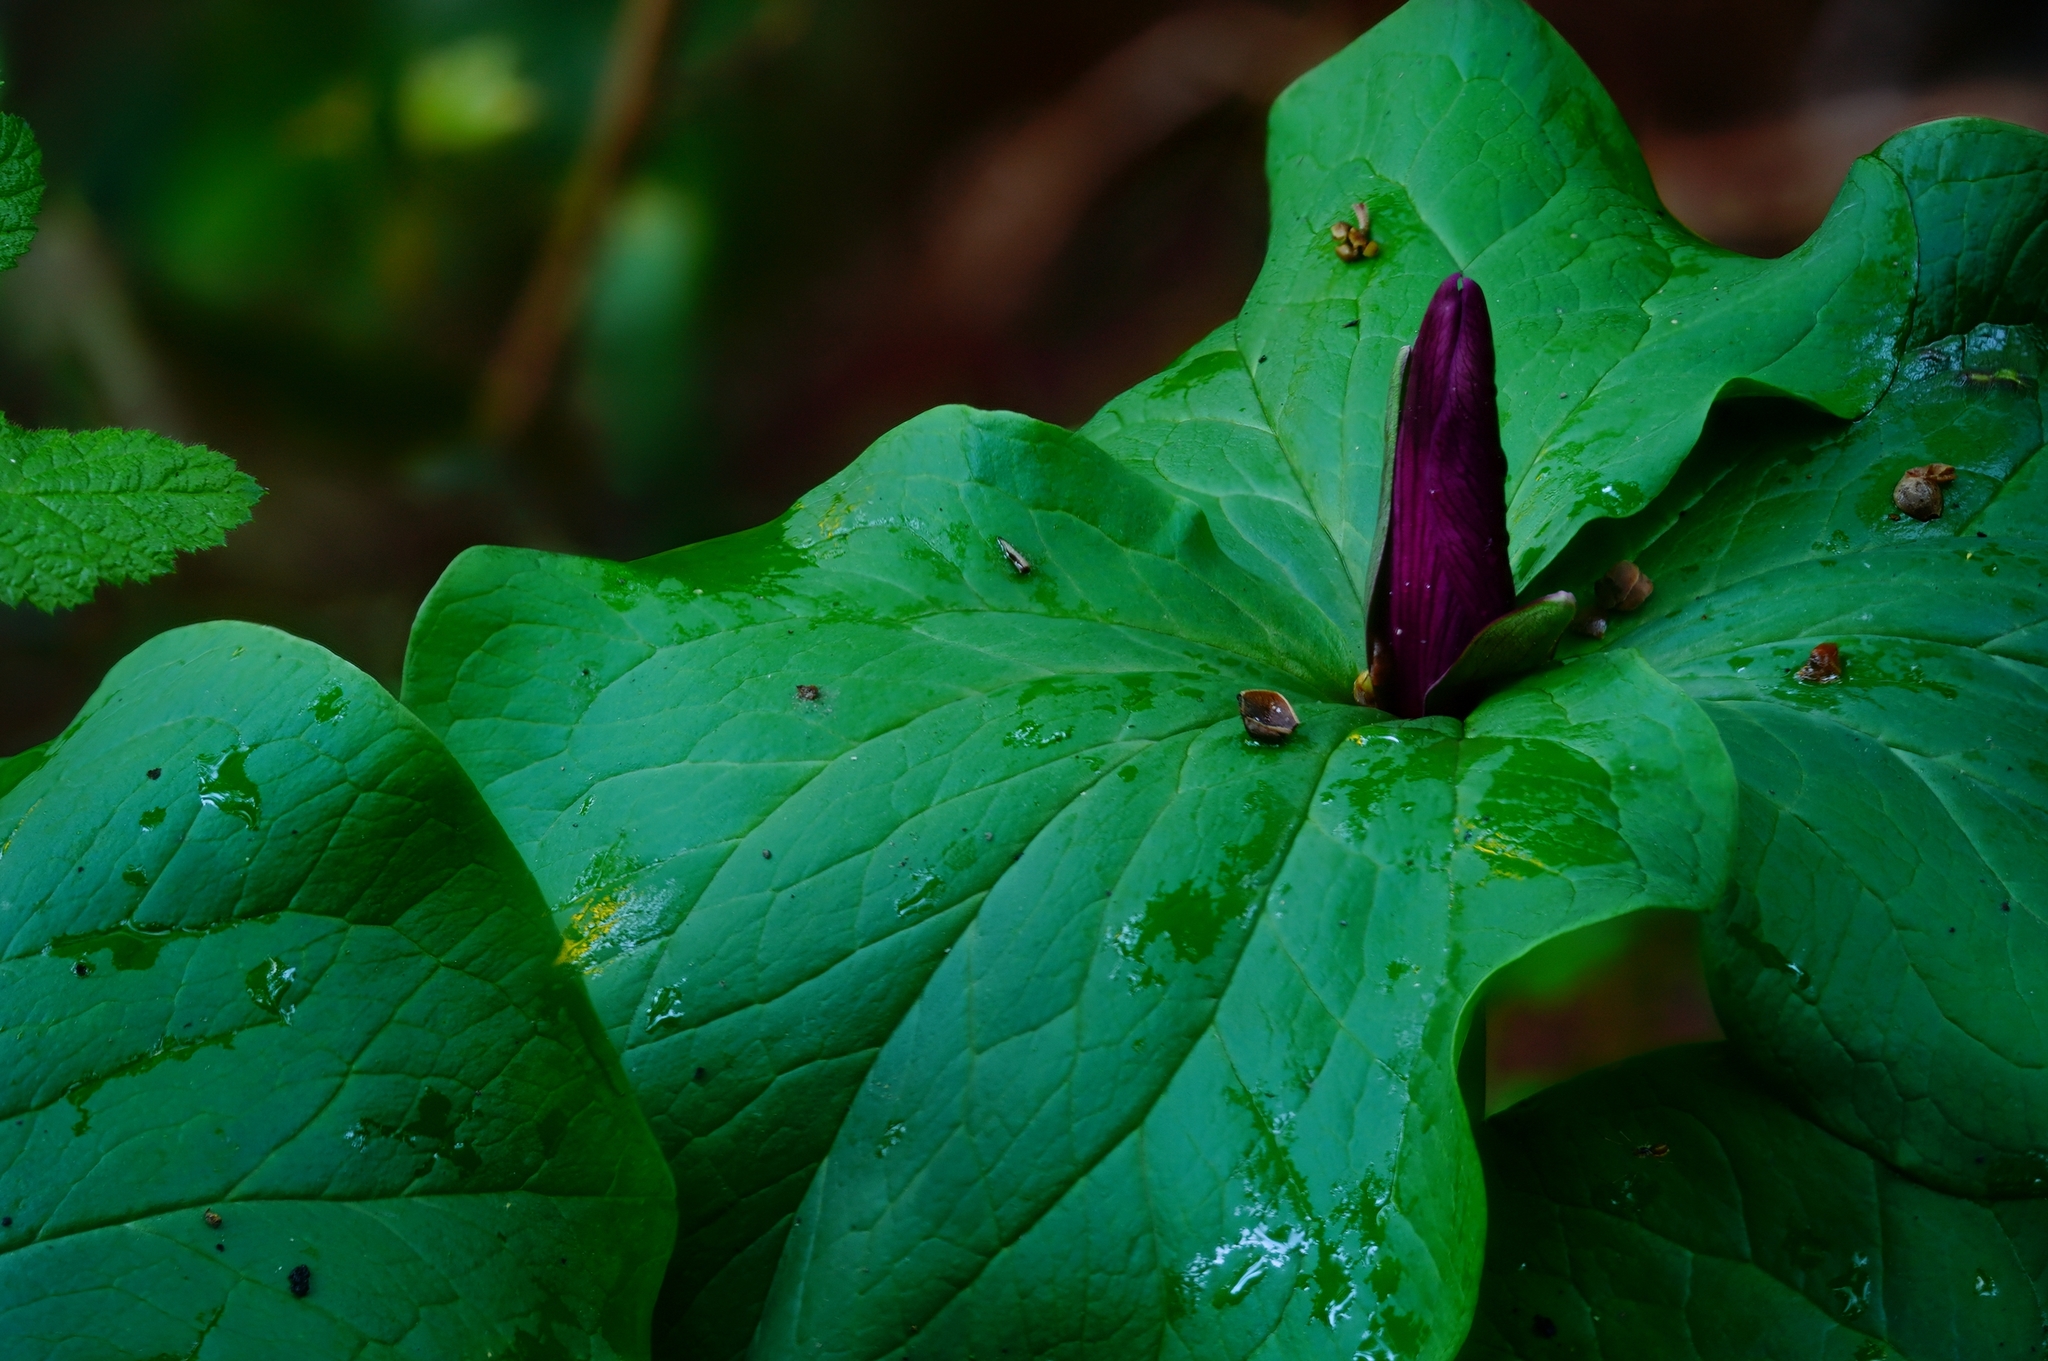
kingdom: Plantae
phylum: Tracheophyta
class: Liliopsida
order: Liliales
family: Melanthiaceae
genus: Trillium
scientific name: Trillium chloropetalum
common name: Giant trillium
